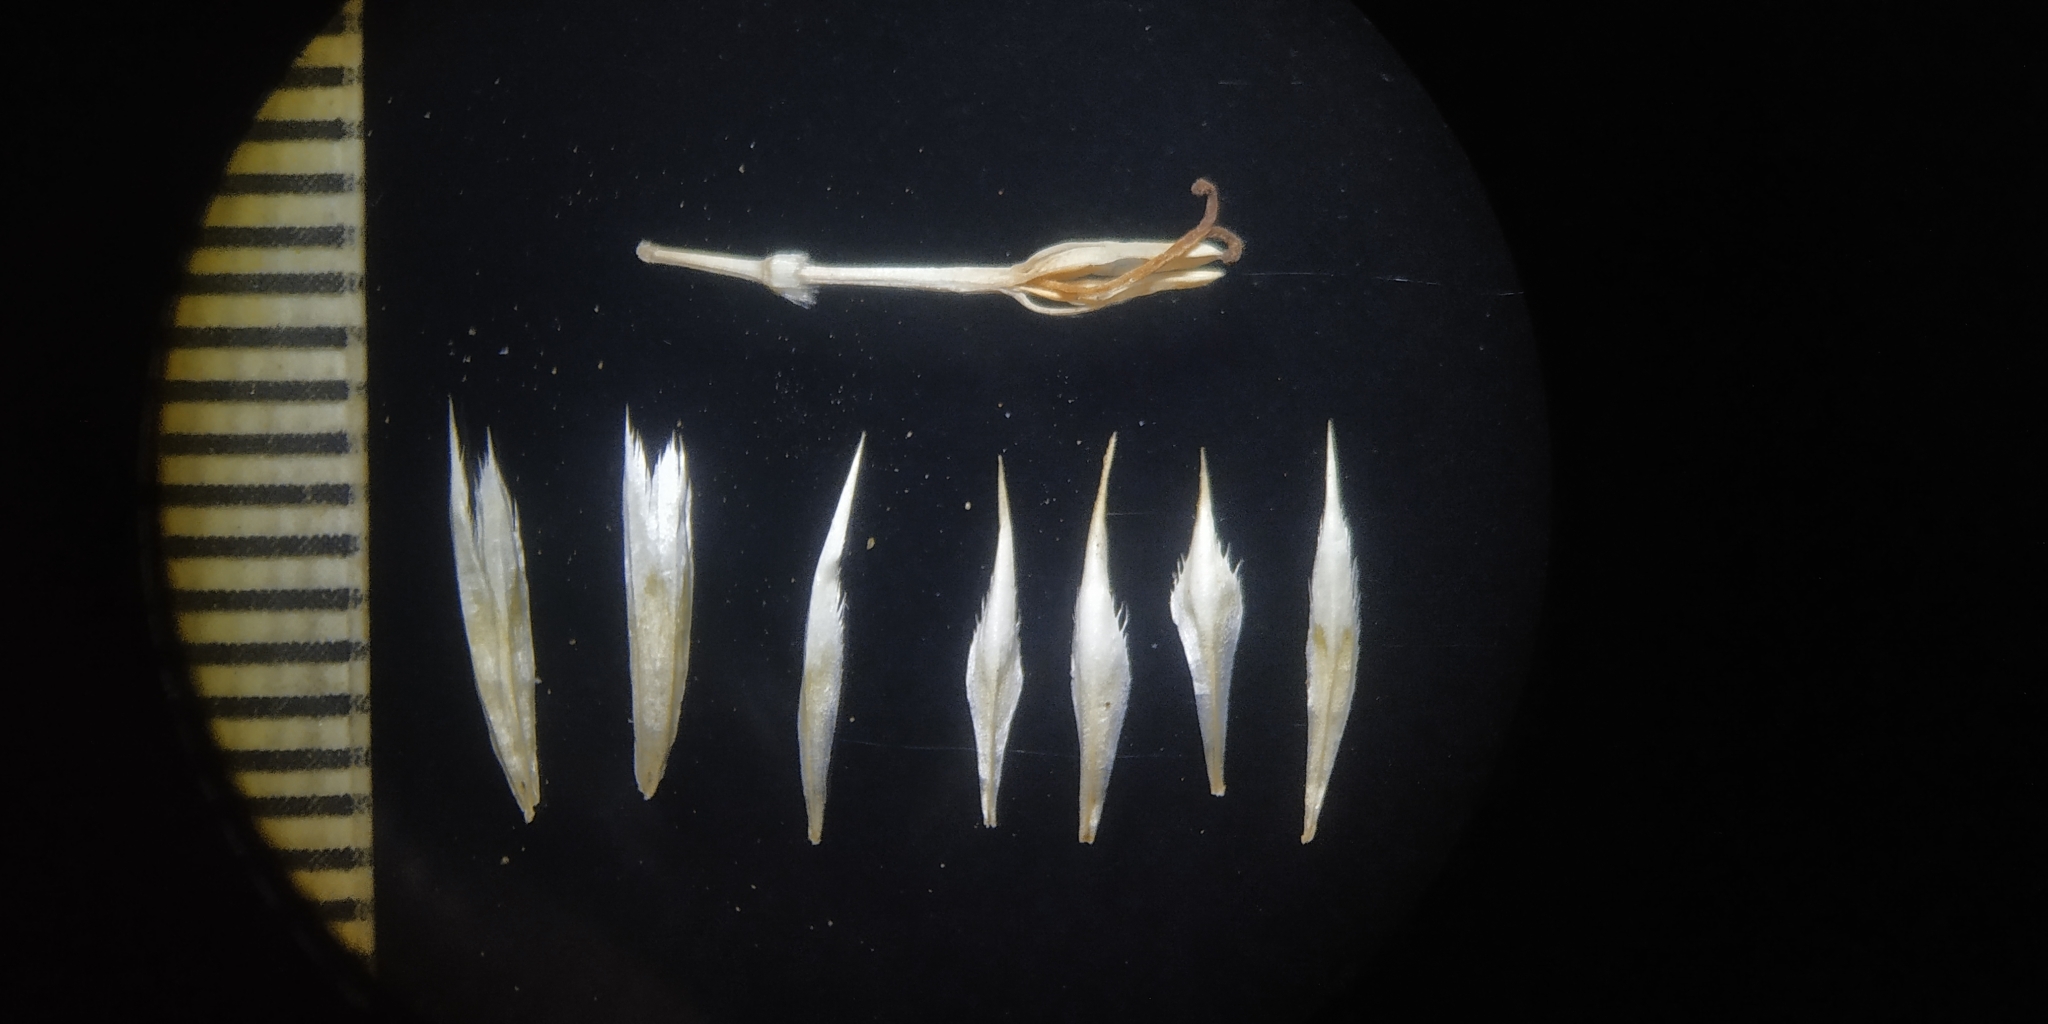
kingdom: Plantae
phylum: Tracheophyta
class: Magnoliopsida
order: Asterales
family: Asteraceae
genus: Echinops
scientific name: Echinops echinatus
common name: Indian globe thistle
